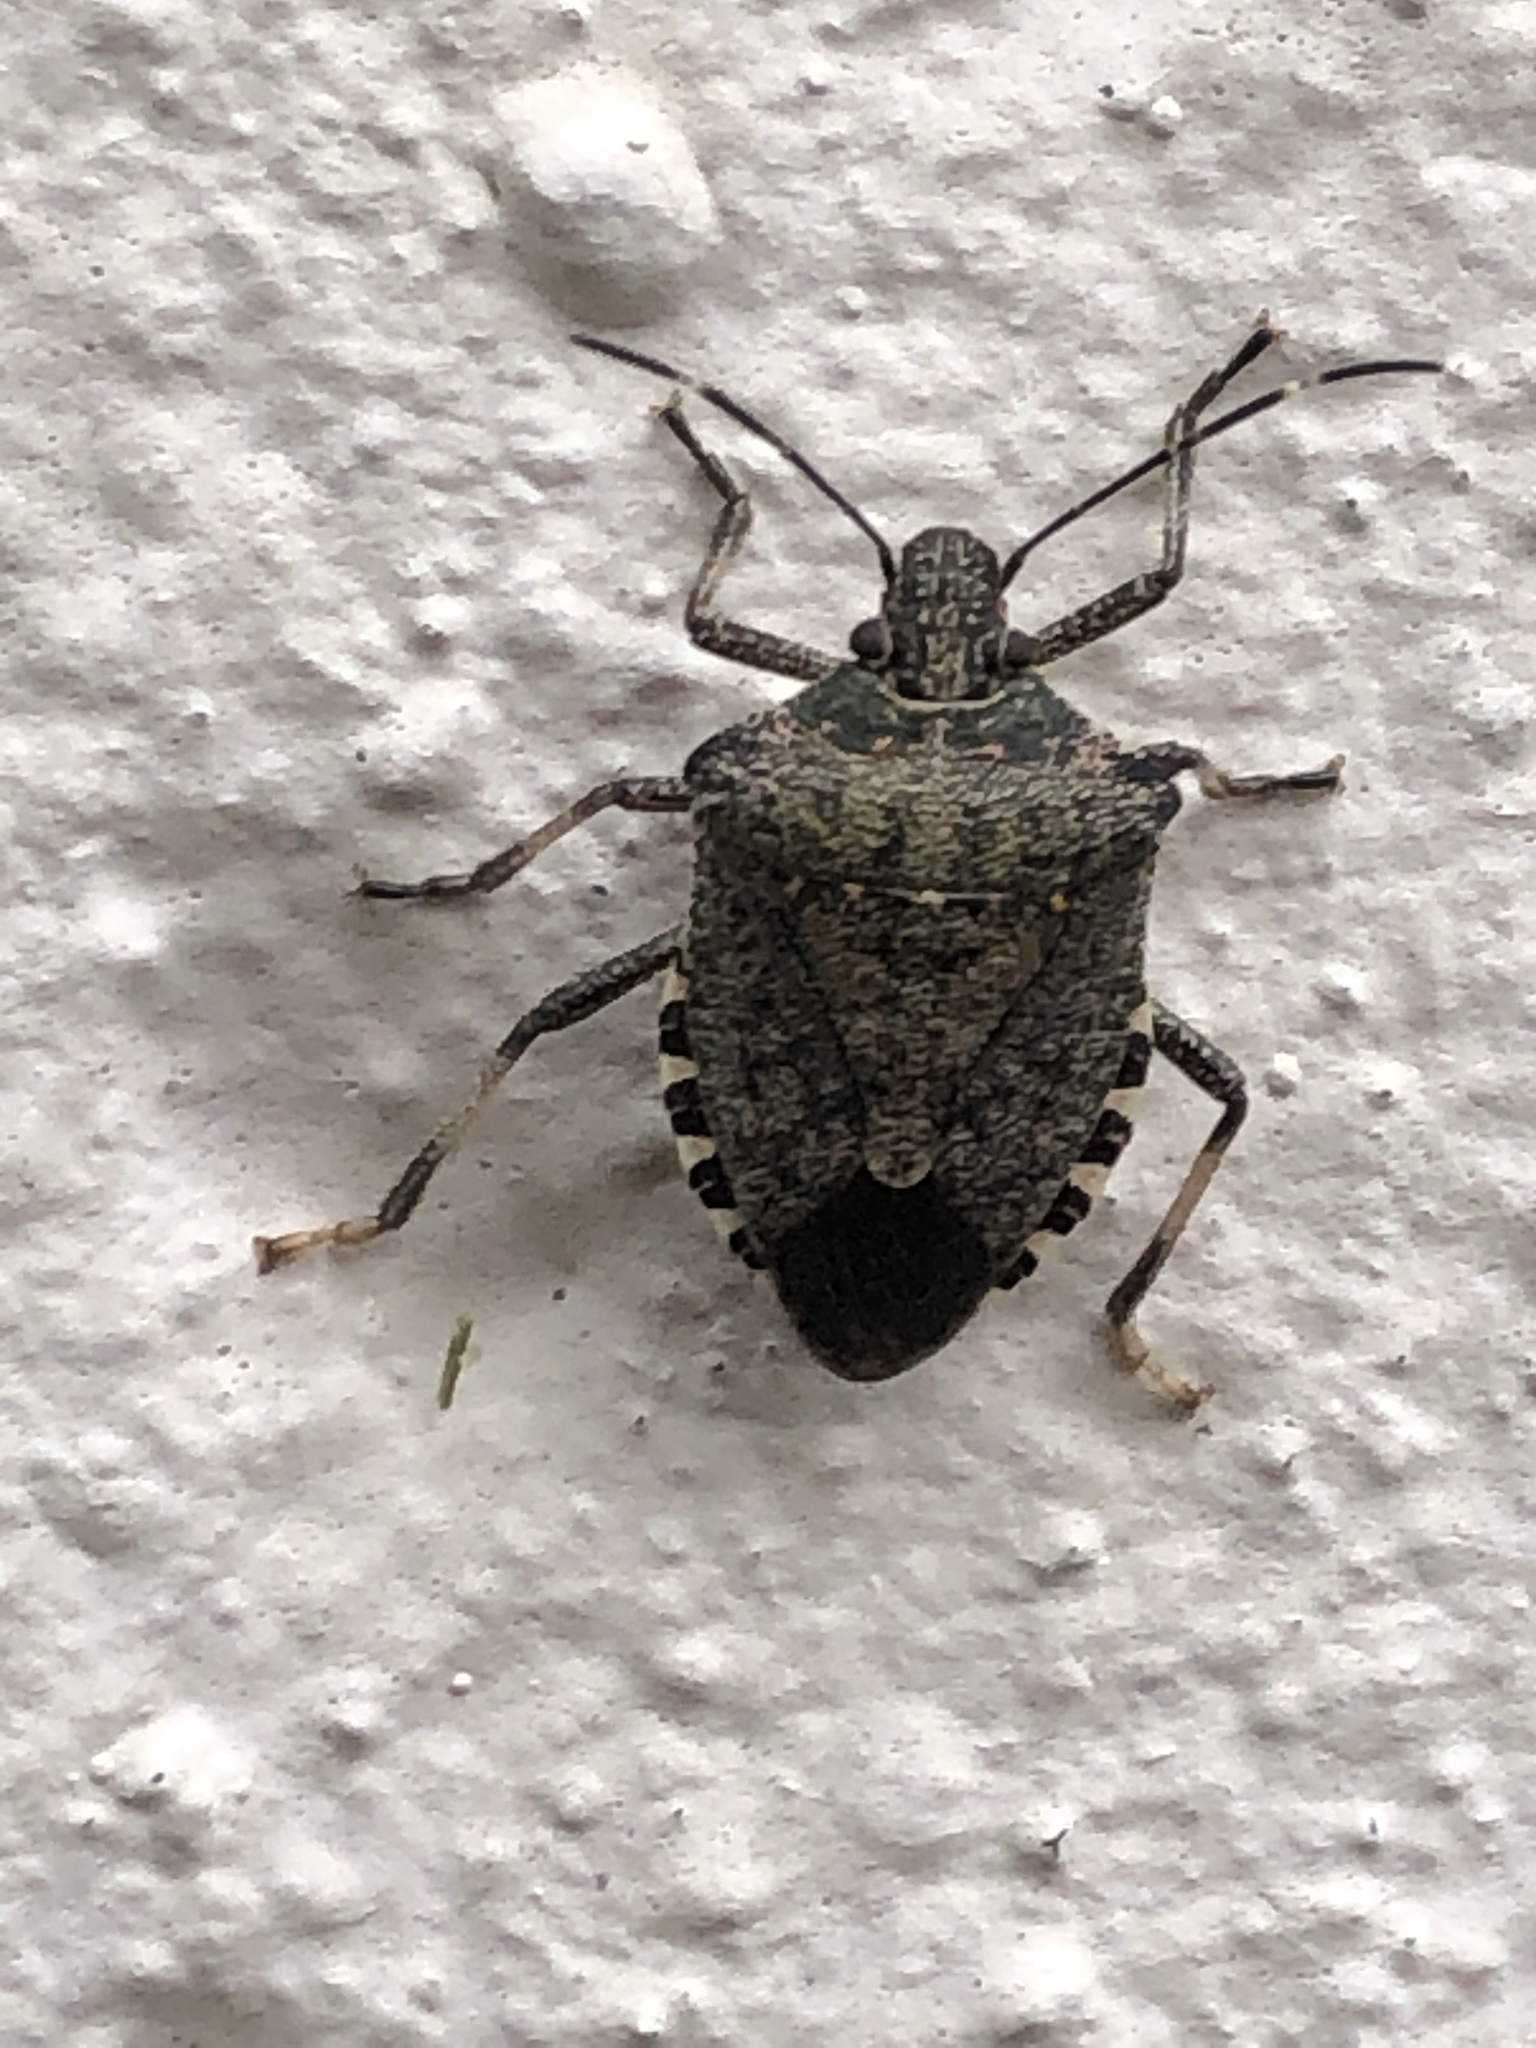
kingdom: Animalia
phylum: Arthropoda
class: Insecta
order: Hemiptera
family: Pentatomidae
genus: Halyomorpha
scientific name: Halyomorpha halys
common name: Brown marmorated stink bug
